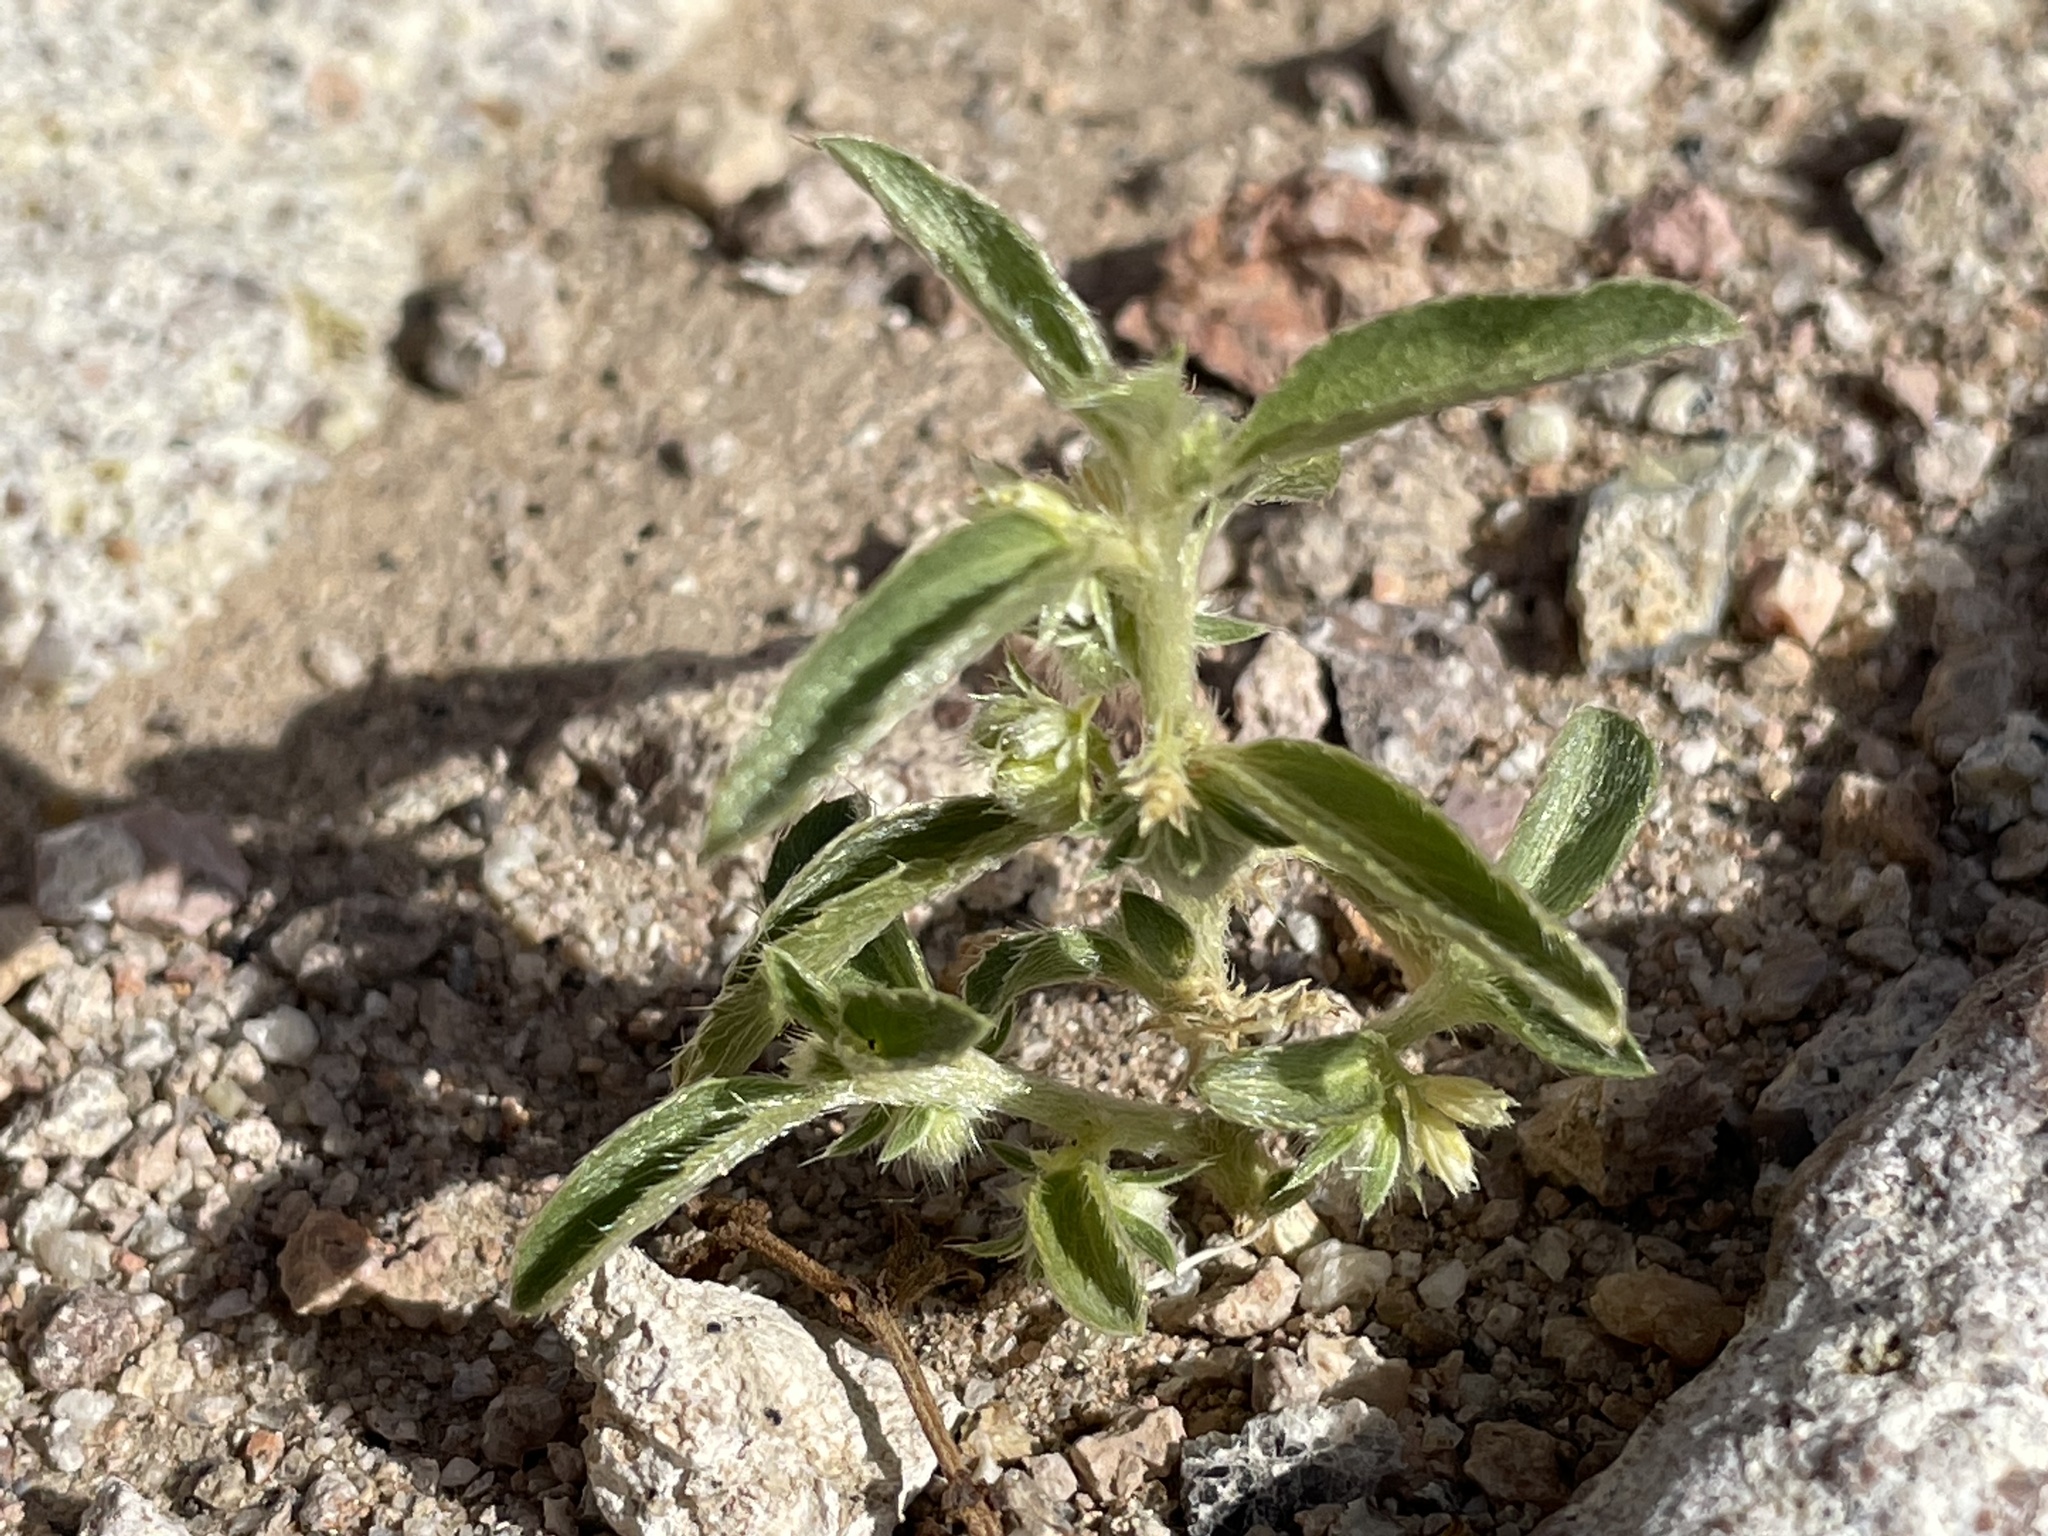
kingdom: Plantae
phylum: Tracheophyta
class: Magnoliopsida
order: Malpighiales
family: Euphorbiaceae
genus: Ditaxis
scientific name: Ditaxis serrata
